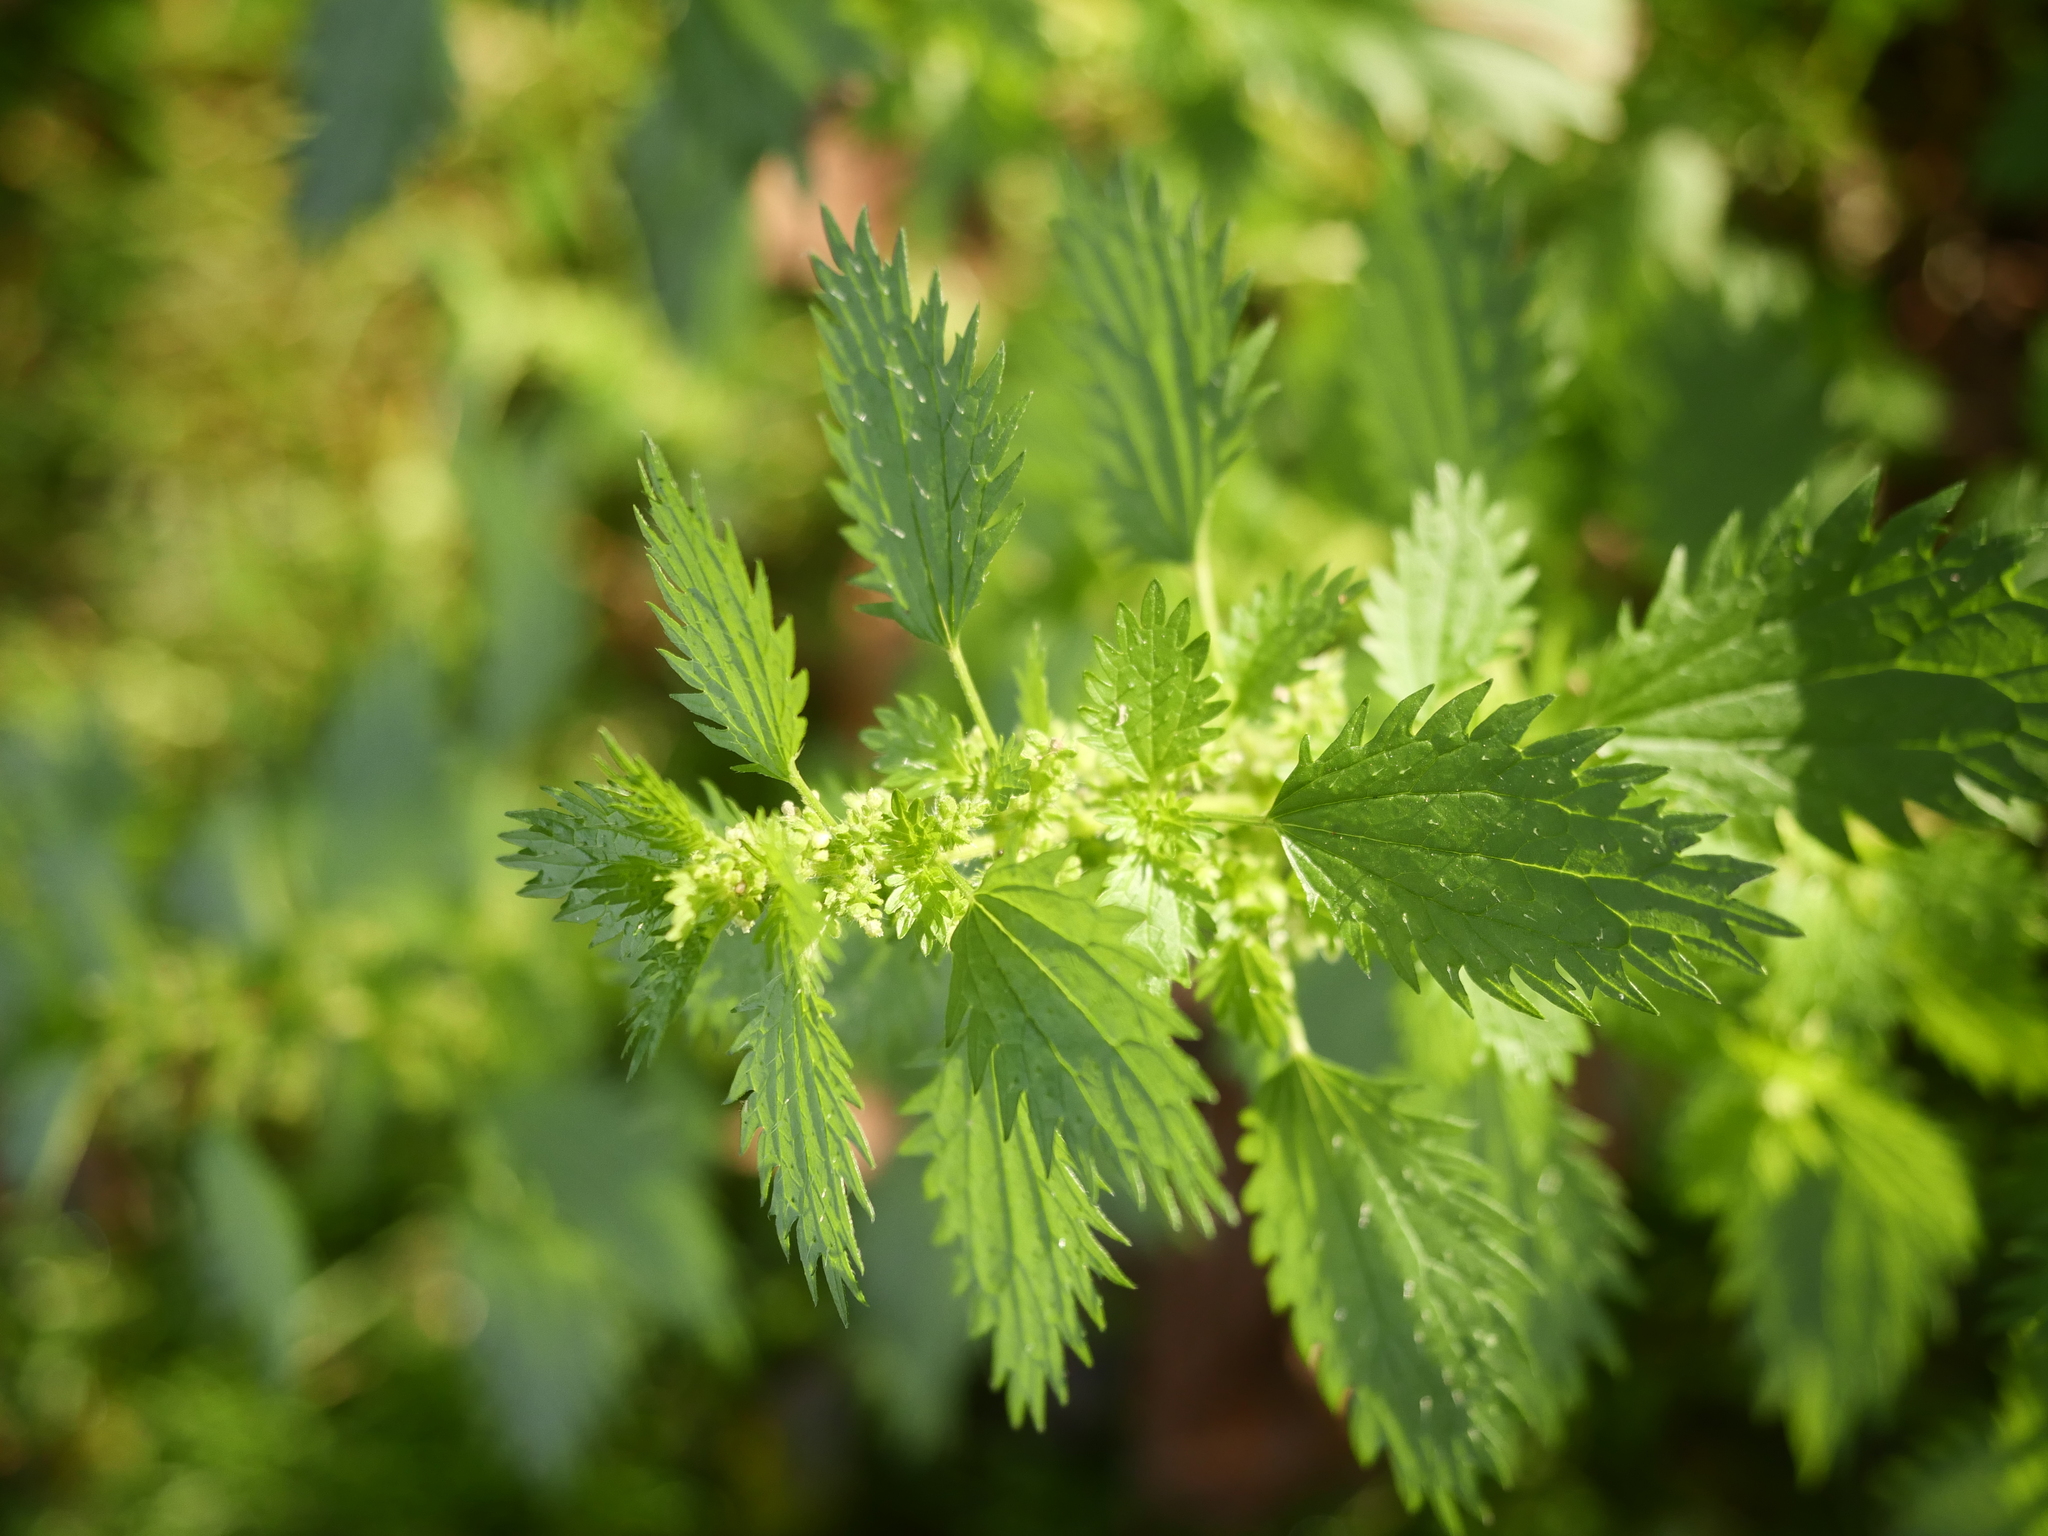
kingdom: Plantae
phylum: Tracheophyta
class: Magnoliopsida
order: Rosales
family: Urticaceae
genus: Urtica
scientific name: Urtica urens
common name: Dwarf nettle
